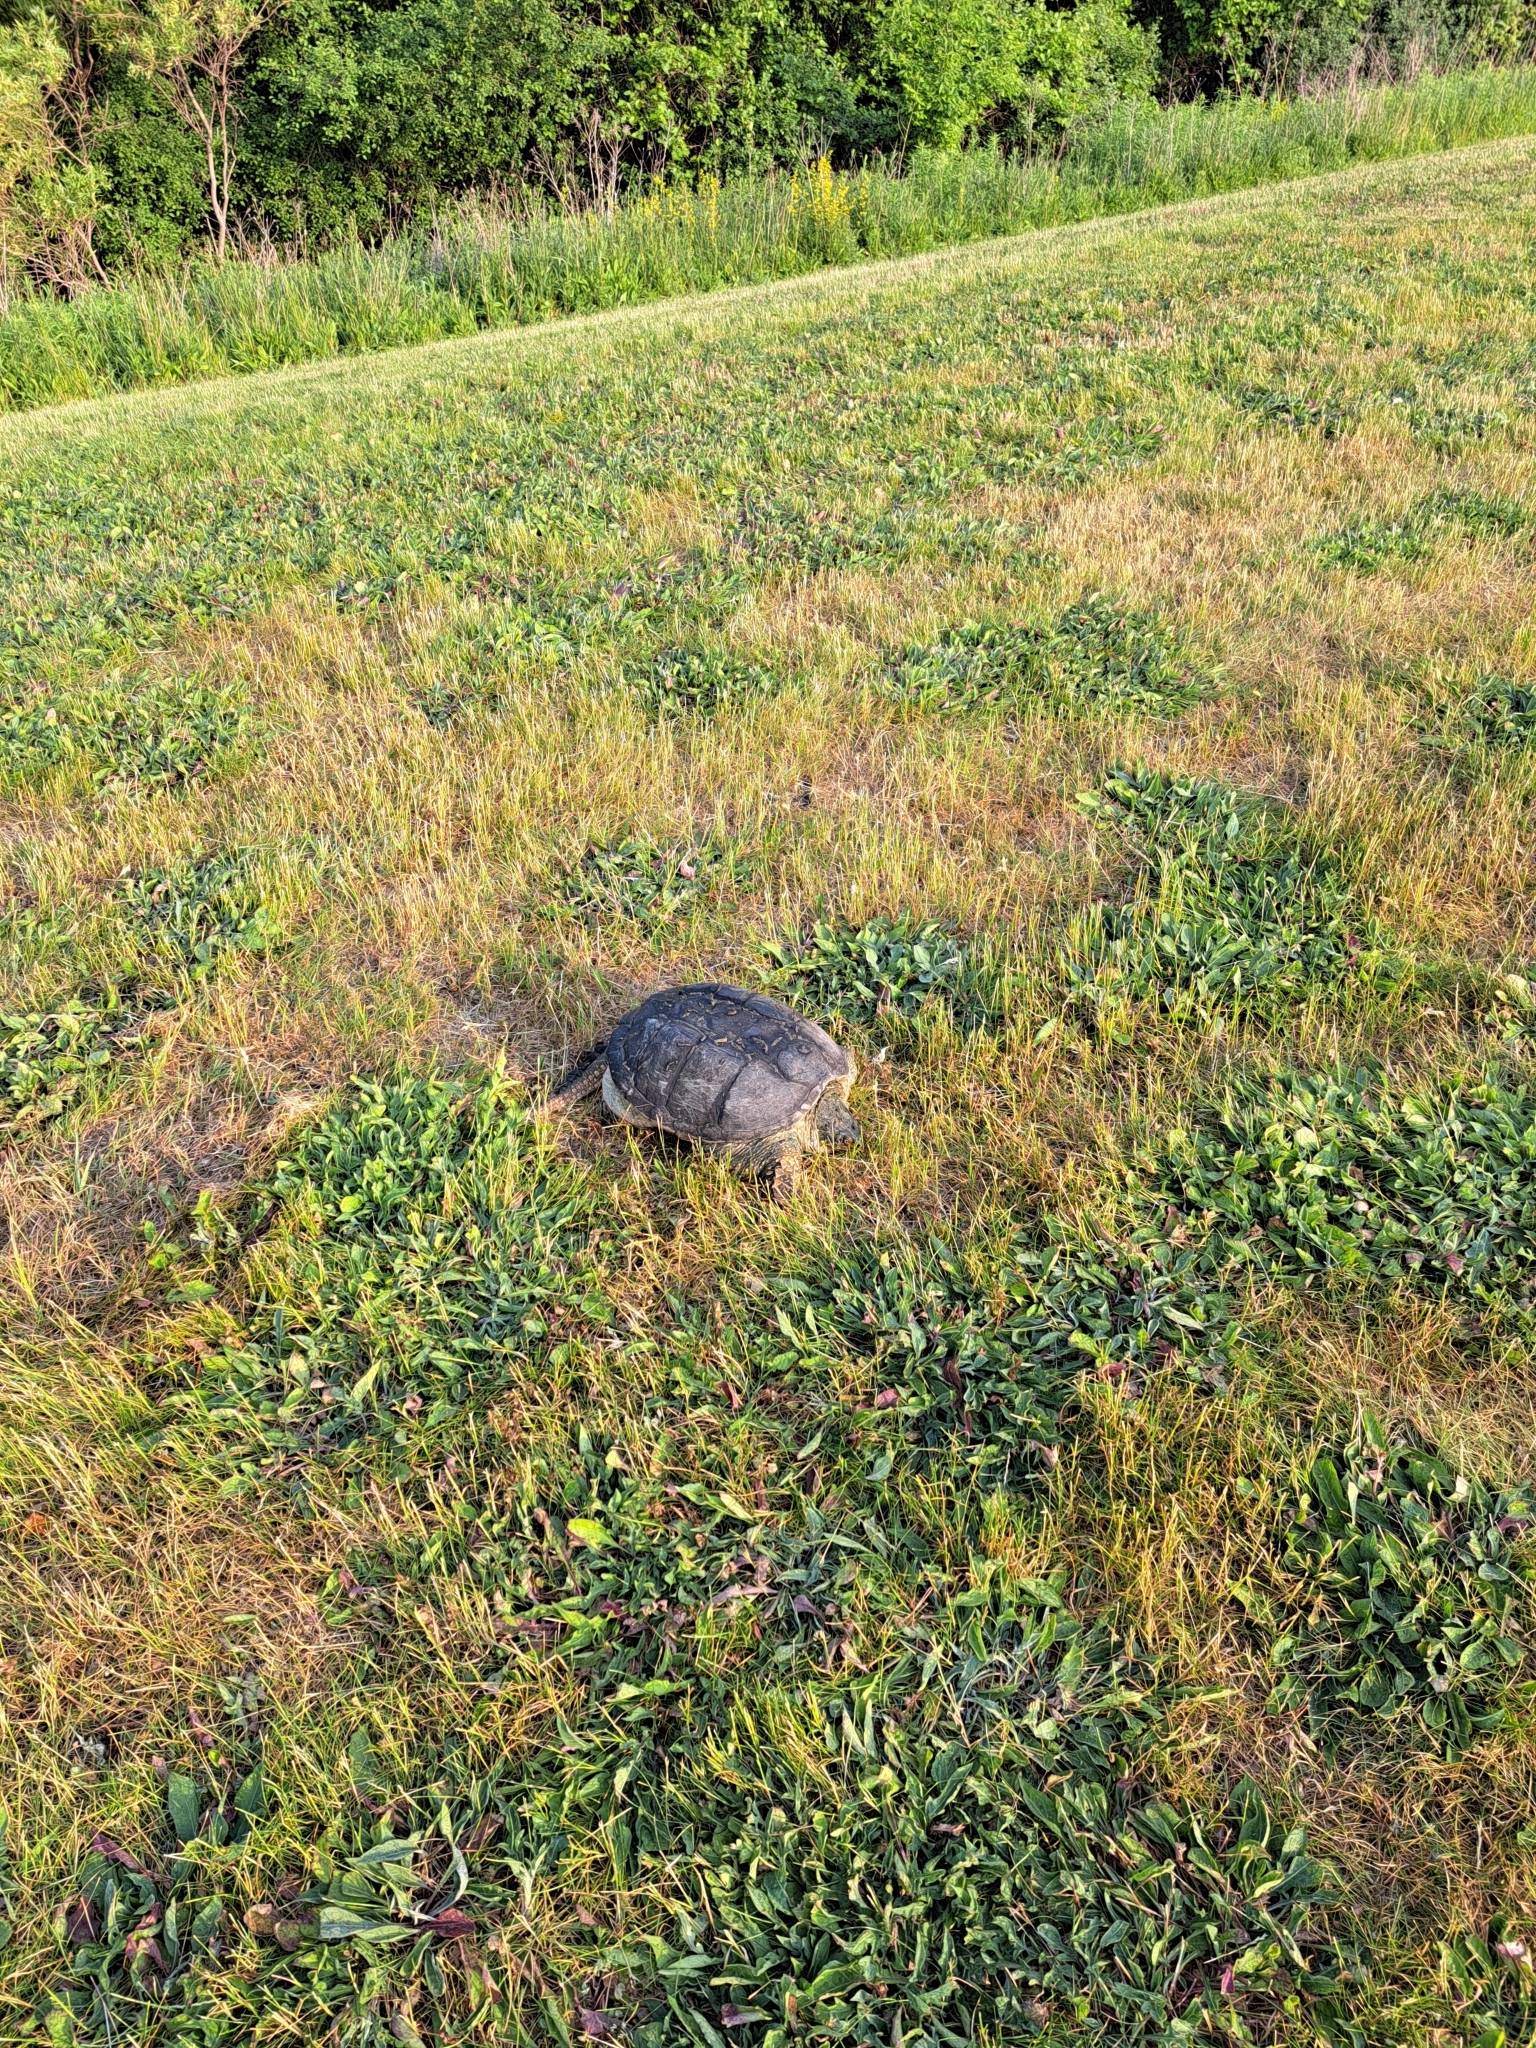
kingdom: Animalia
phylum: Chordata
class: Testudines
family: Chelydridae
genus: Chelydra
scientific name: Chelydra serpentina
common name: Common snapping turtle
